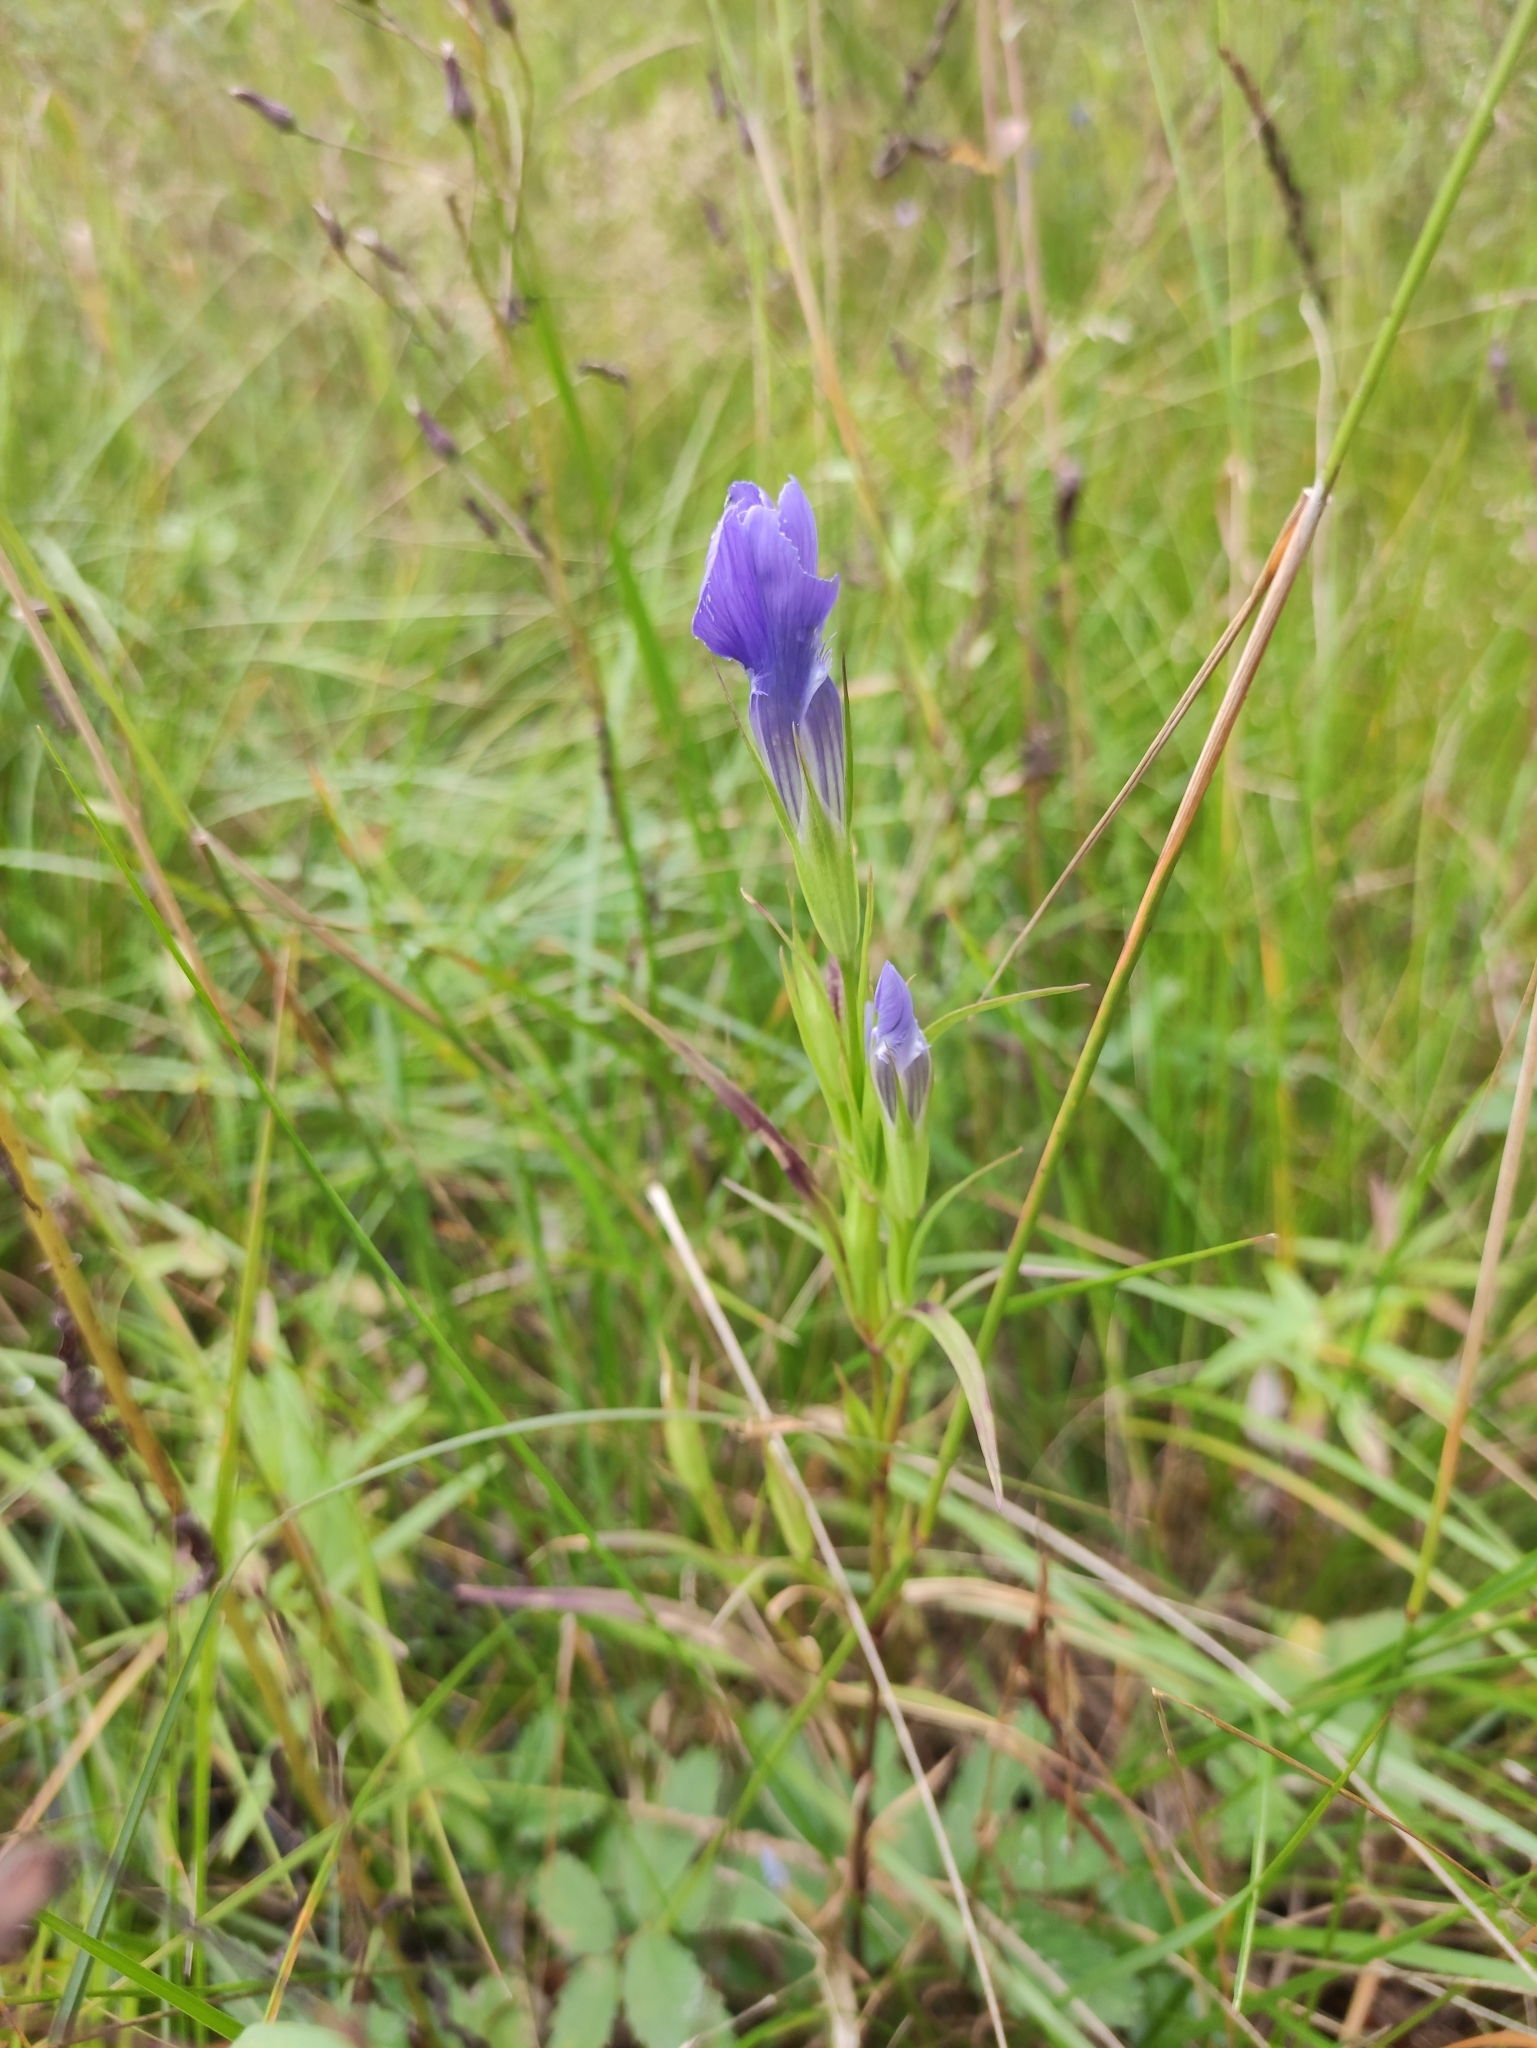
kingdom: Plantae
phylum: Tracheophyta
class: Magnoliopsida
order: Gentianales
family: Gentianaceae
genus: Gentianopsis
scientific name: Gentianopsis barbata
